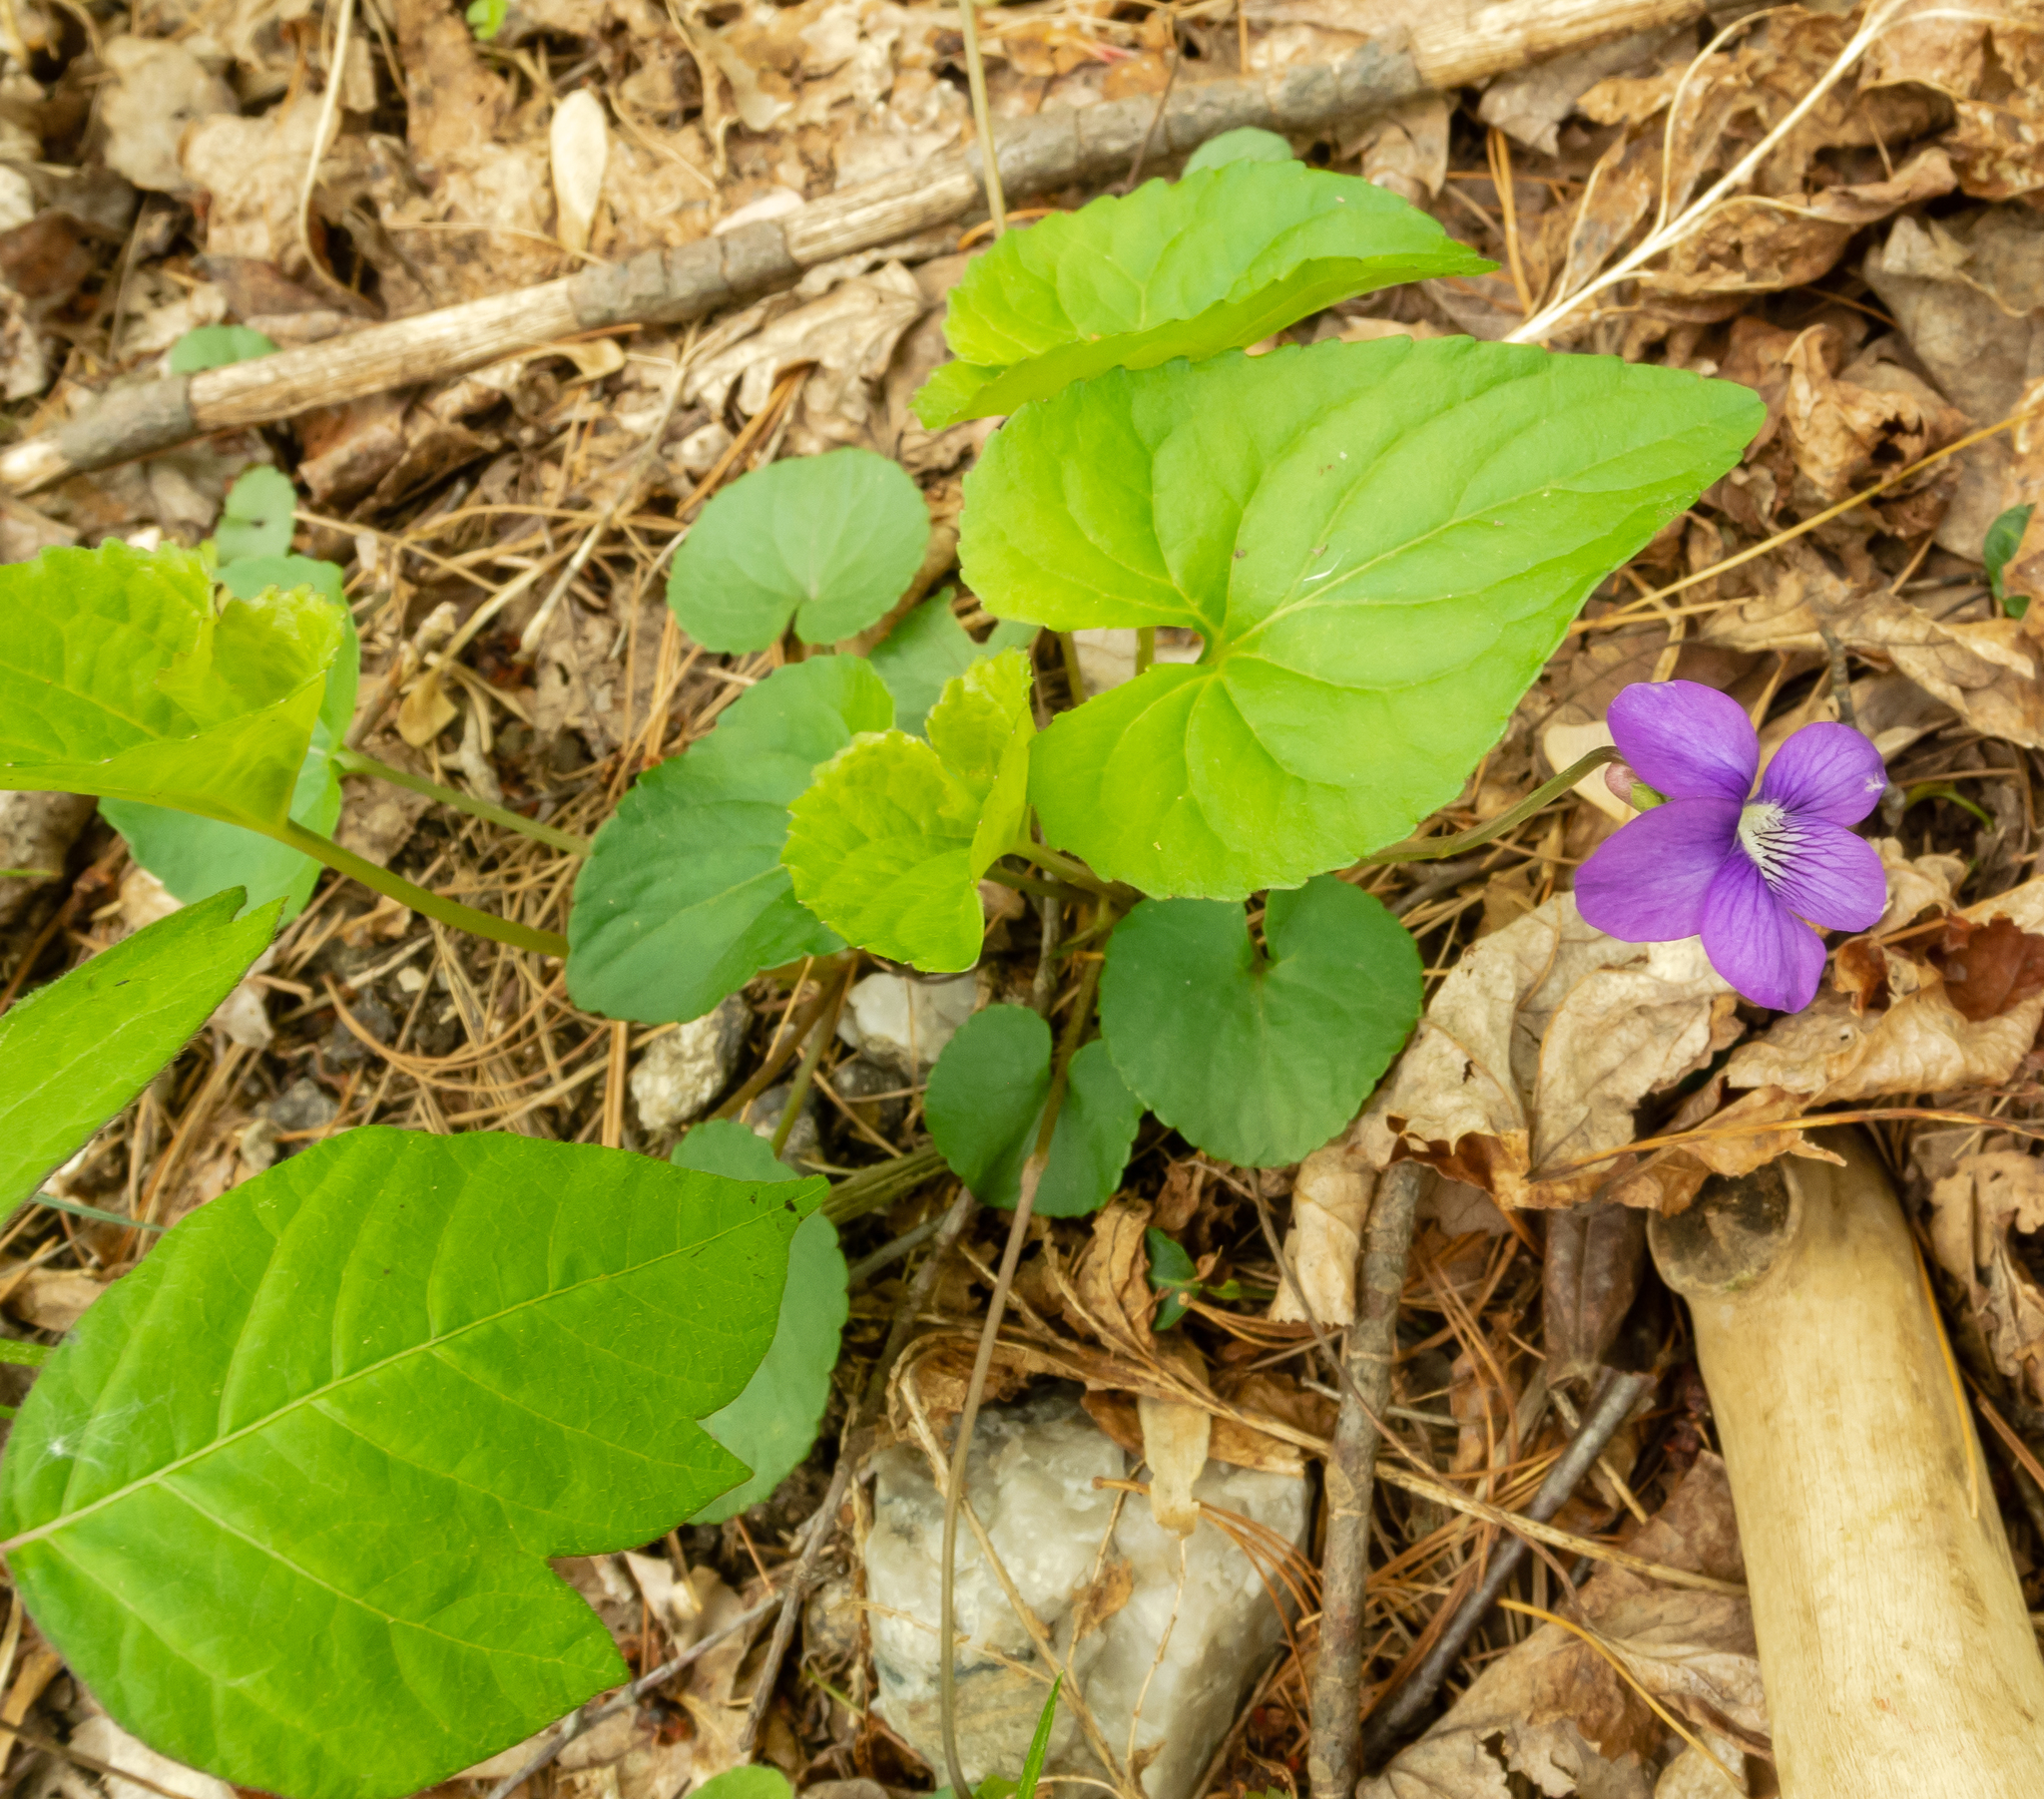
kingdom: Plantae
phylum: Tracheophyta
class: Magnoliopsida
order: Malpighiales
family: Violaceae
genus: Viola
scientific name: Viola sororia
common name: Dooryard violet
